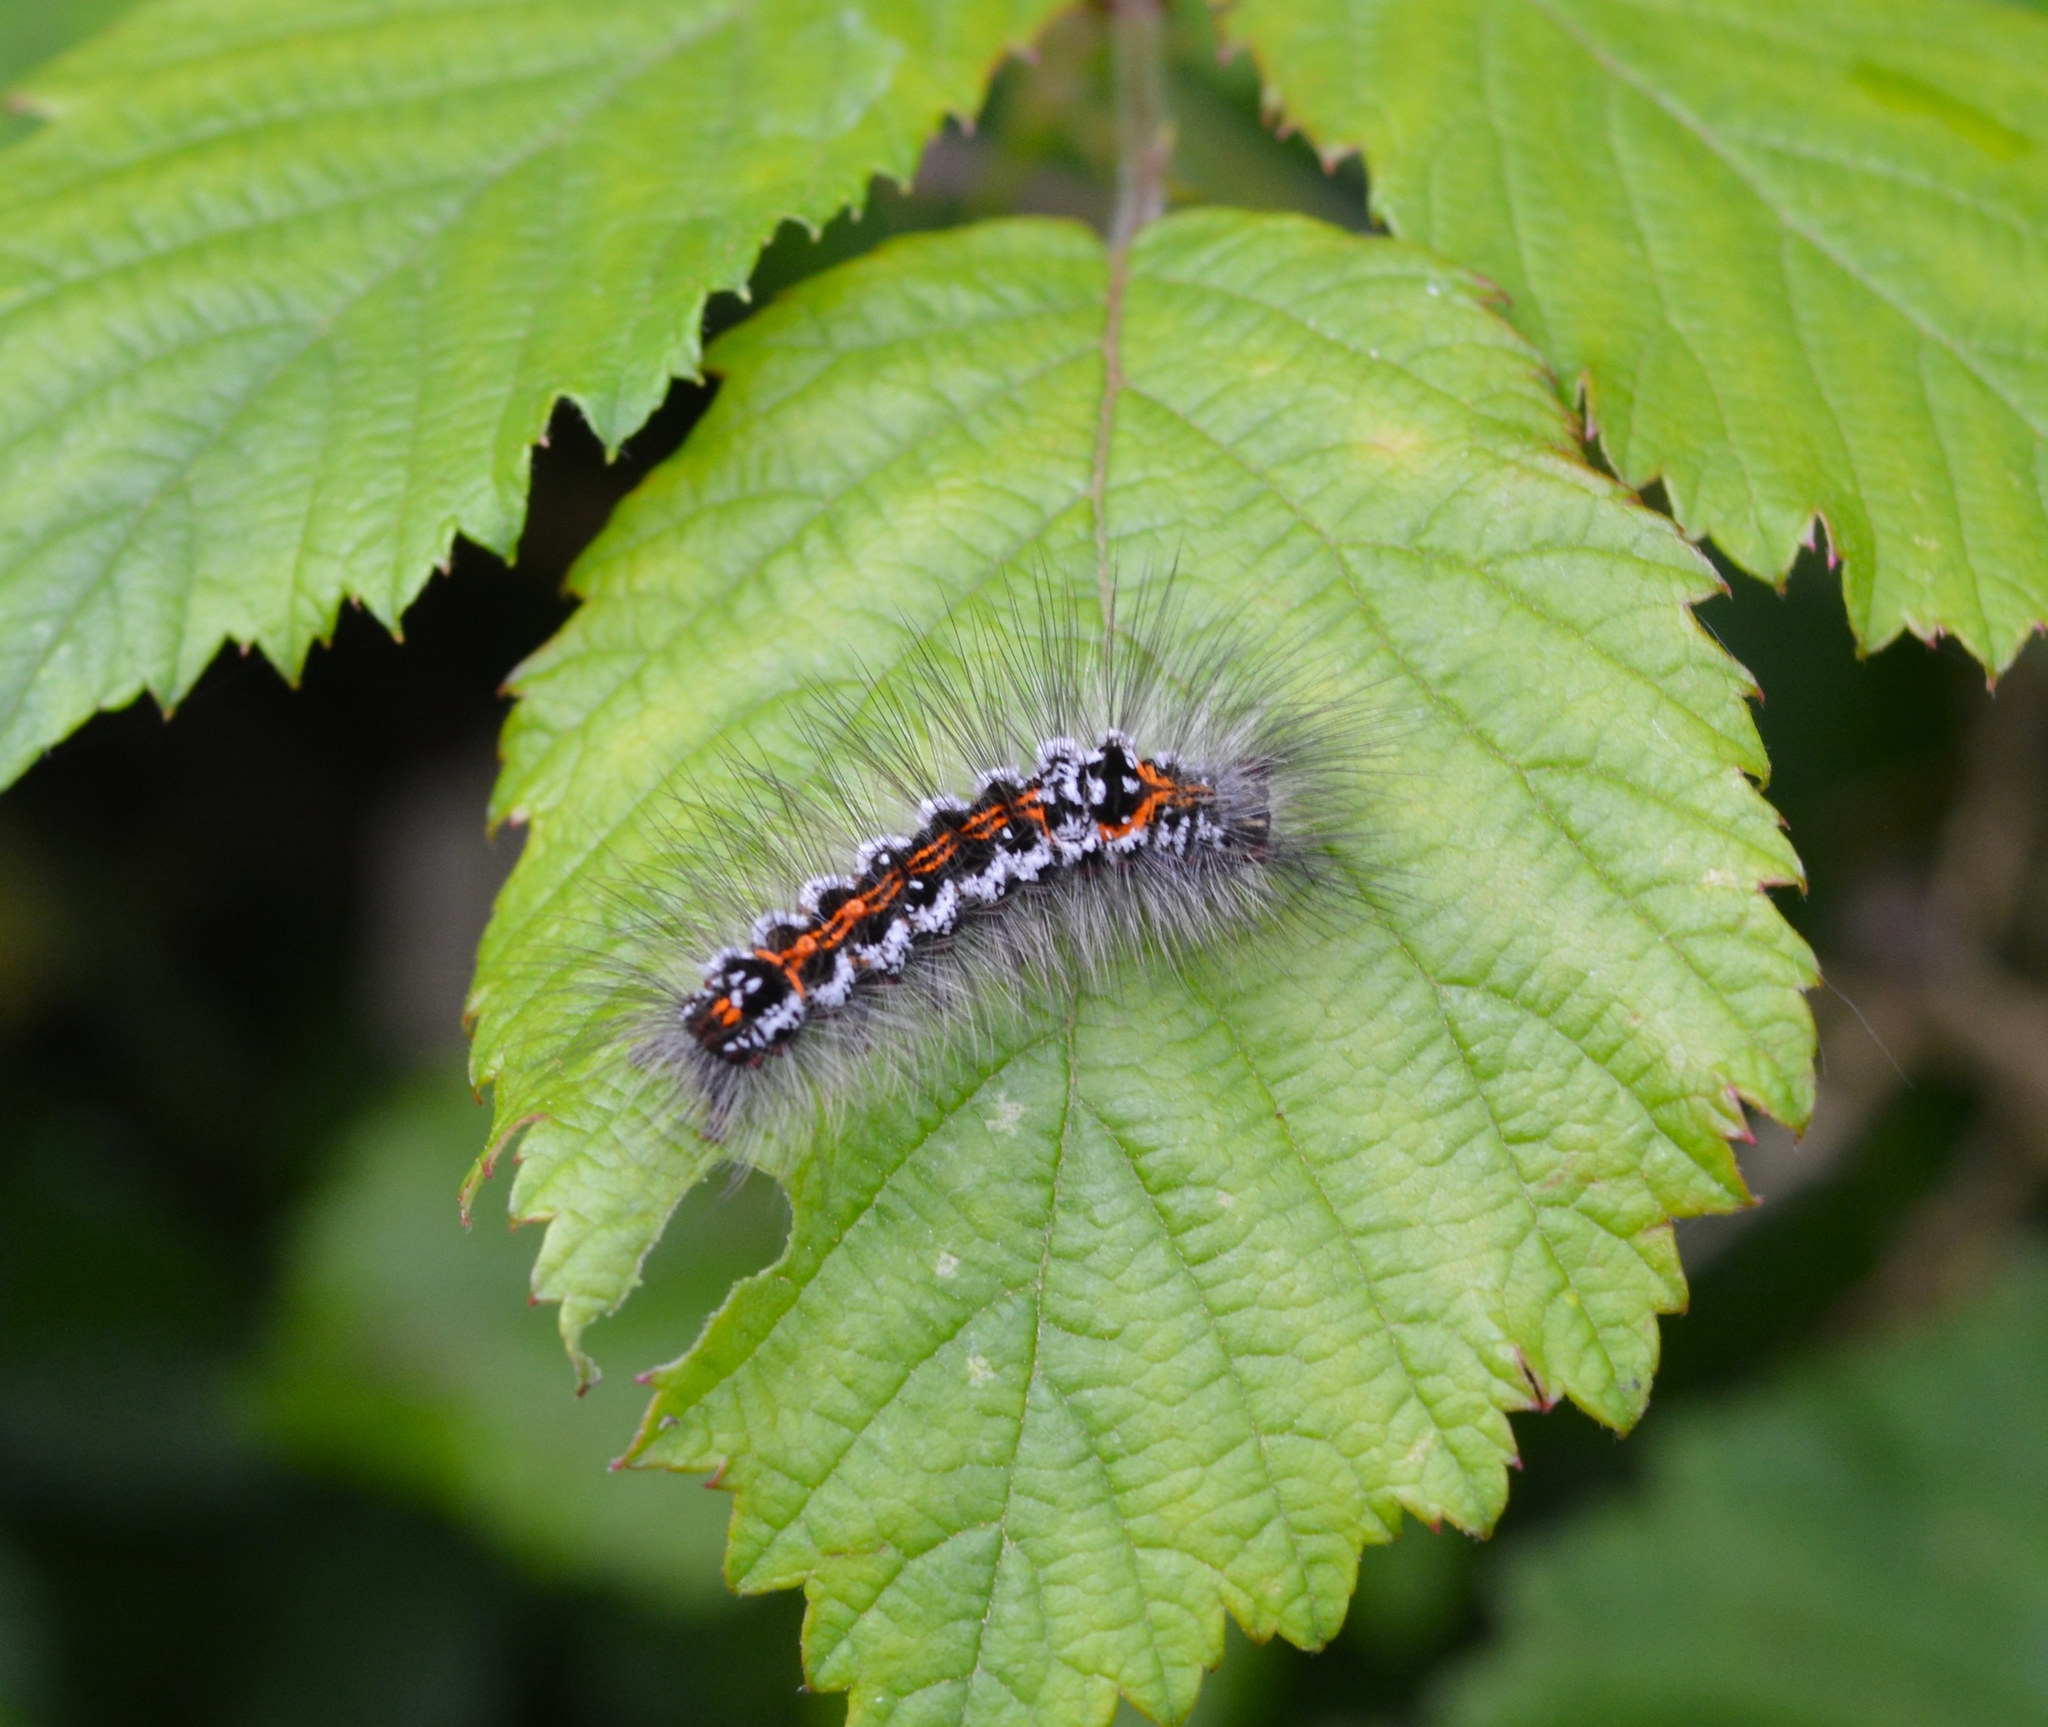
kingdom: Animalia
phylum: Arthropoda
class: Insecta
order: Lepidoptera
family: Erebidae
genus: Sphrageidus
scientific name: Sphrageidus similis
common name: Yellow-tail
